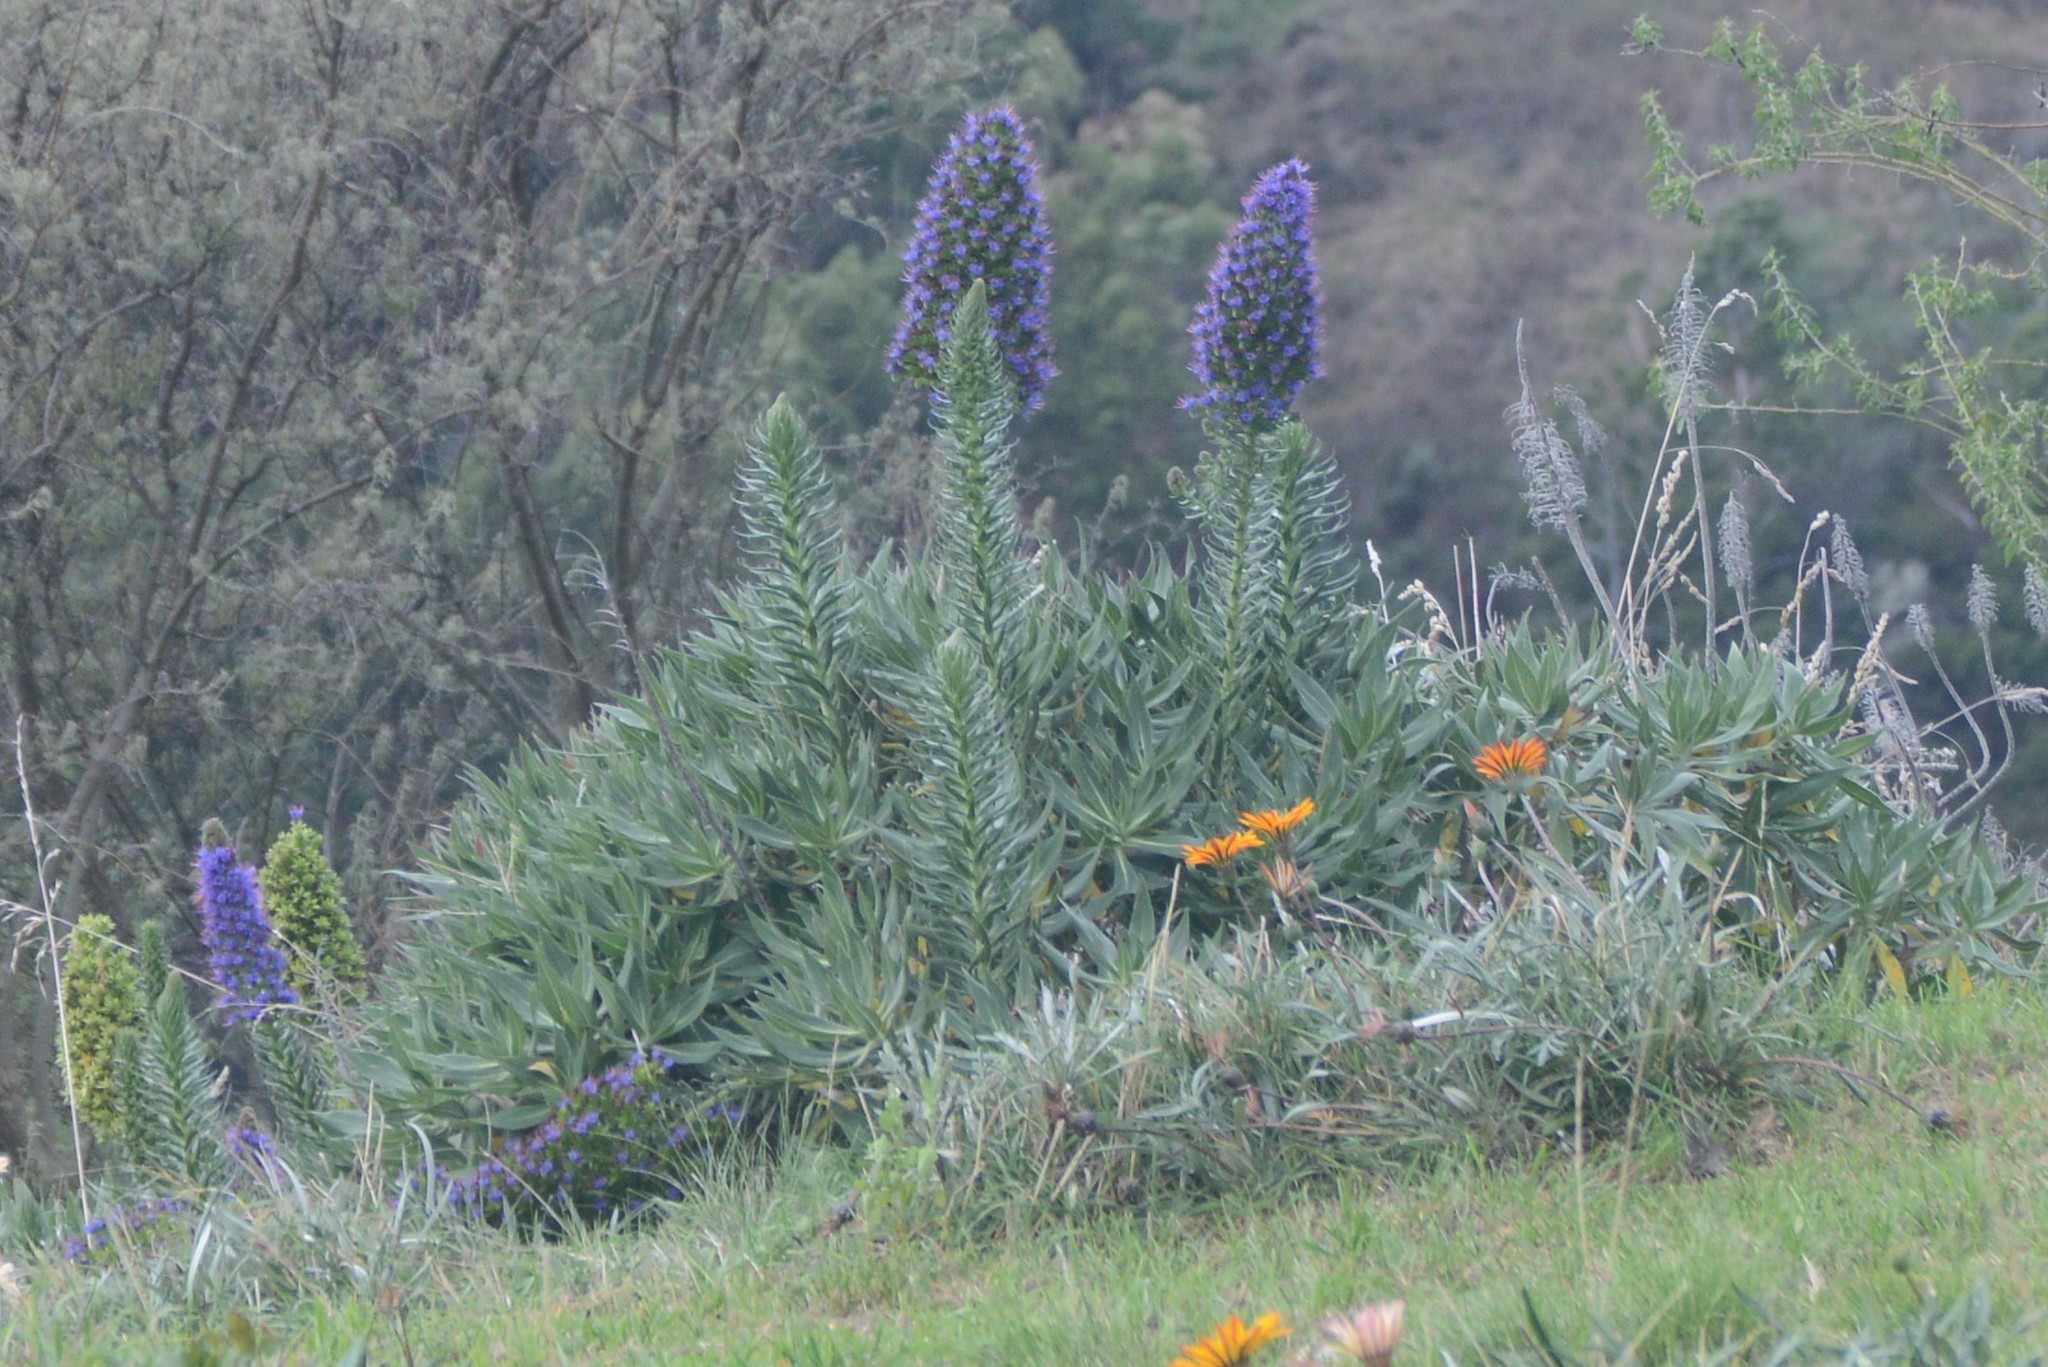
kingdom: Plantae
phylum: Tracheophyta
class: Magnoliopsida
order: Boraginales
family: Boraginaceae
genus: Echium
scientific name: Echium candicans
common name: Pride of madeira
